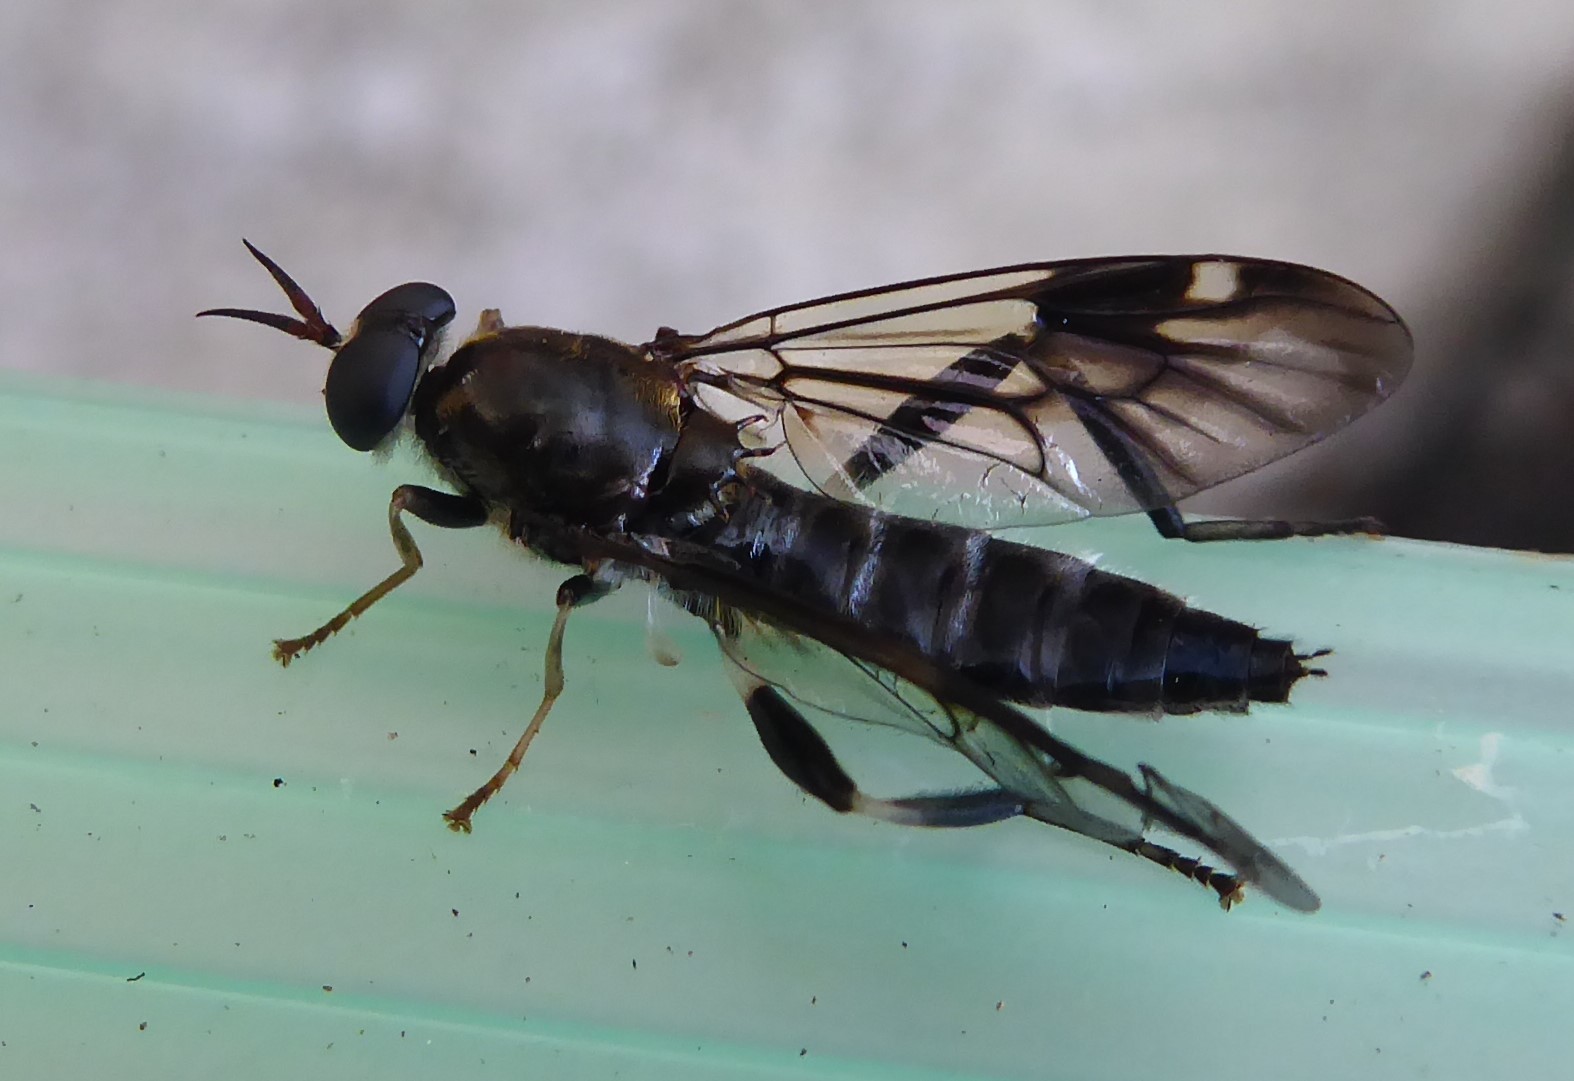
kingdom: Animalia
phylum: Arthropoda
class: Insecta
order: Diptera
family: Stratiomyidae
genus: Exaireta
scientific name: Exaireta spinigera
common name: Blue soldier fly
